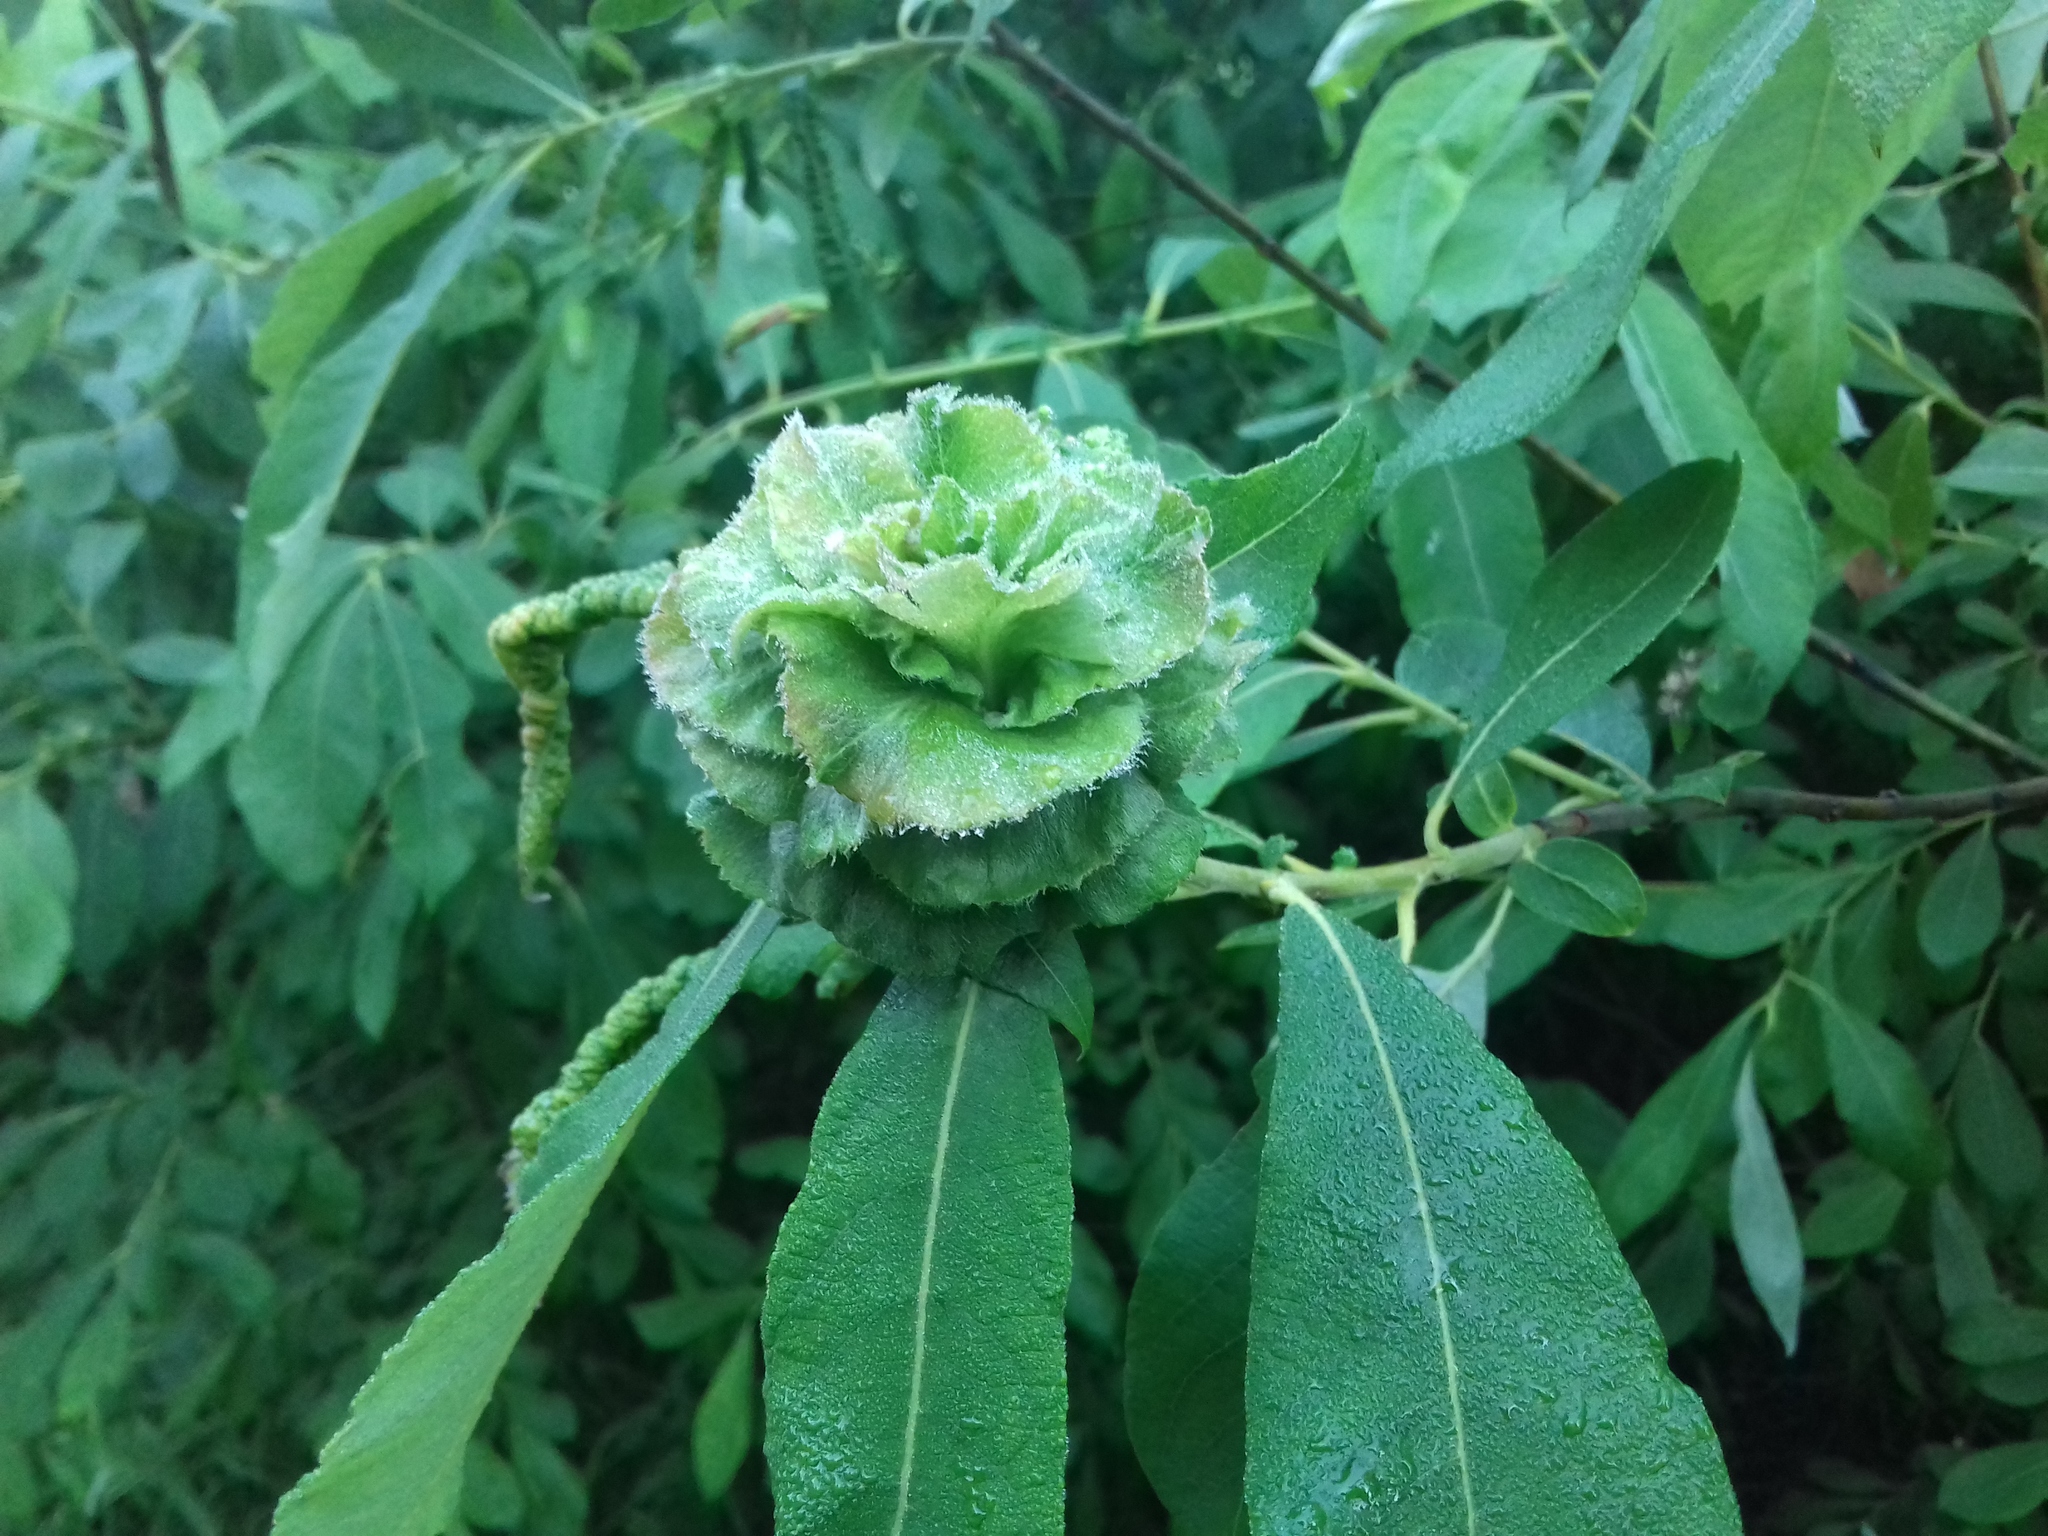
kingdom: Animalia
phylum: Arthropoda
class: Insecta
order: Diptera
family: Cecidomyiidae
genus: Rabdophaga
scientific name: Rabdophaga rosaria
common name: Willow rose gall midge
